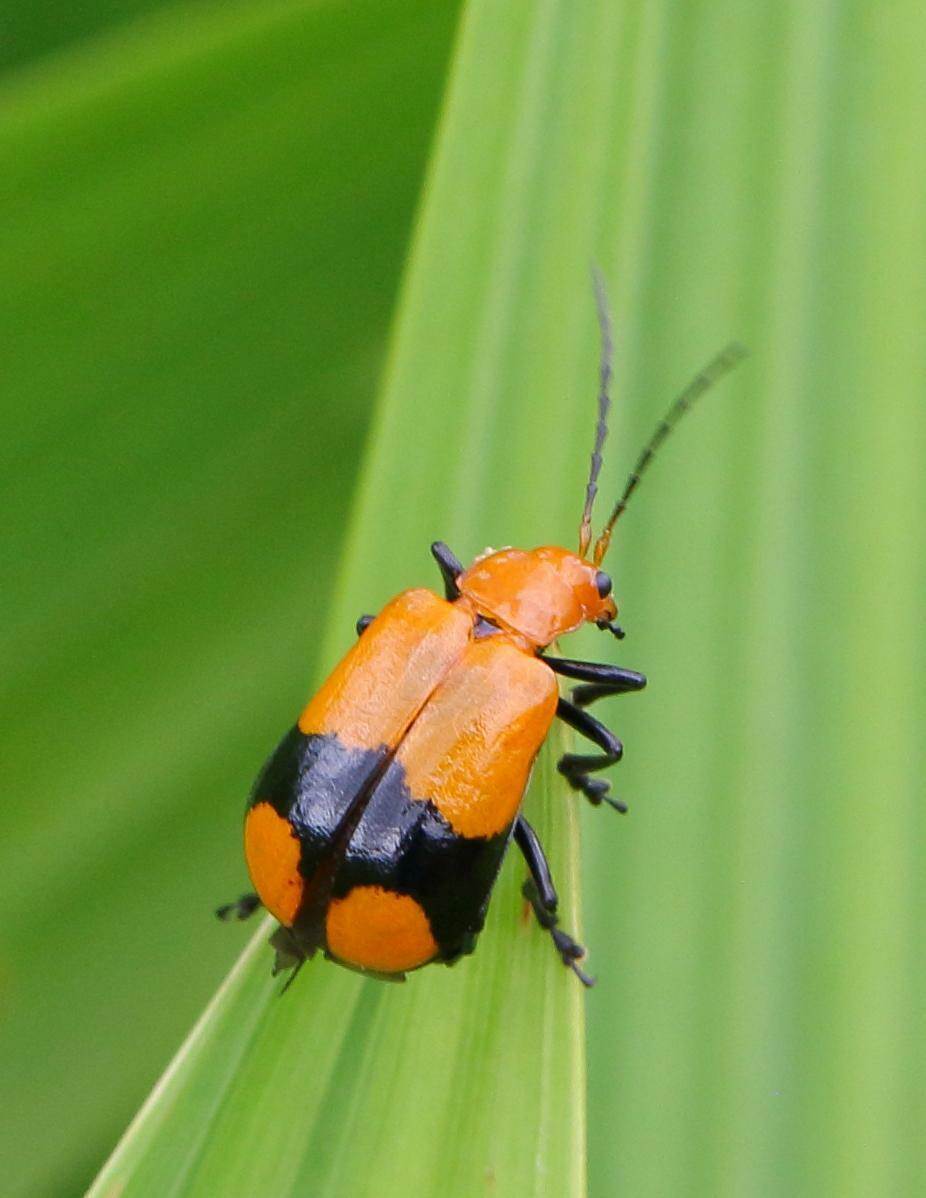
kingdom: Animalia
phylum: Arthropoda
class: Insecta
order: Coleoptera
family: Chrysomelidae
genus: Prosmidia
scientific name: Prosmidia
